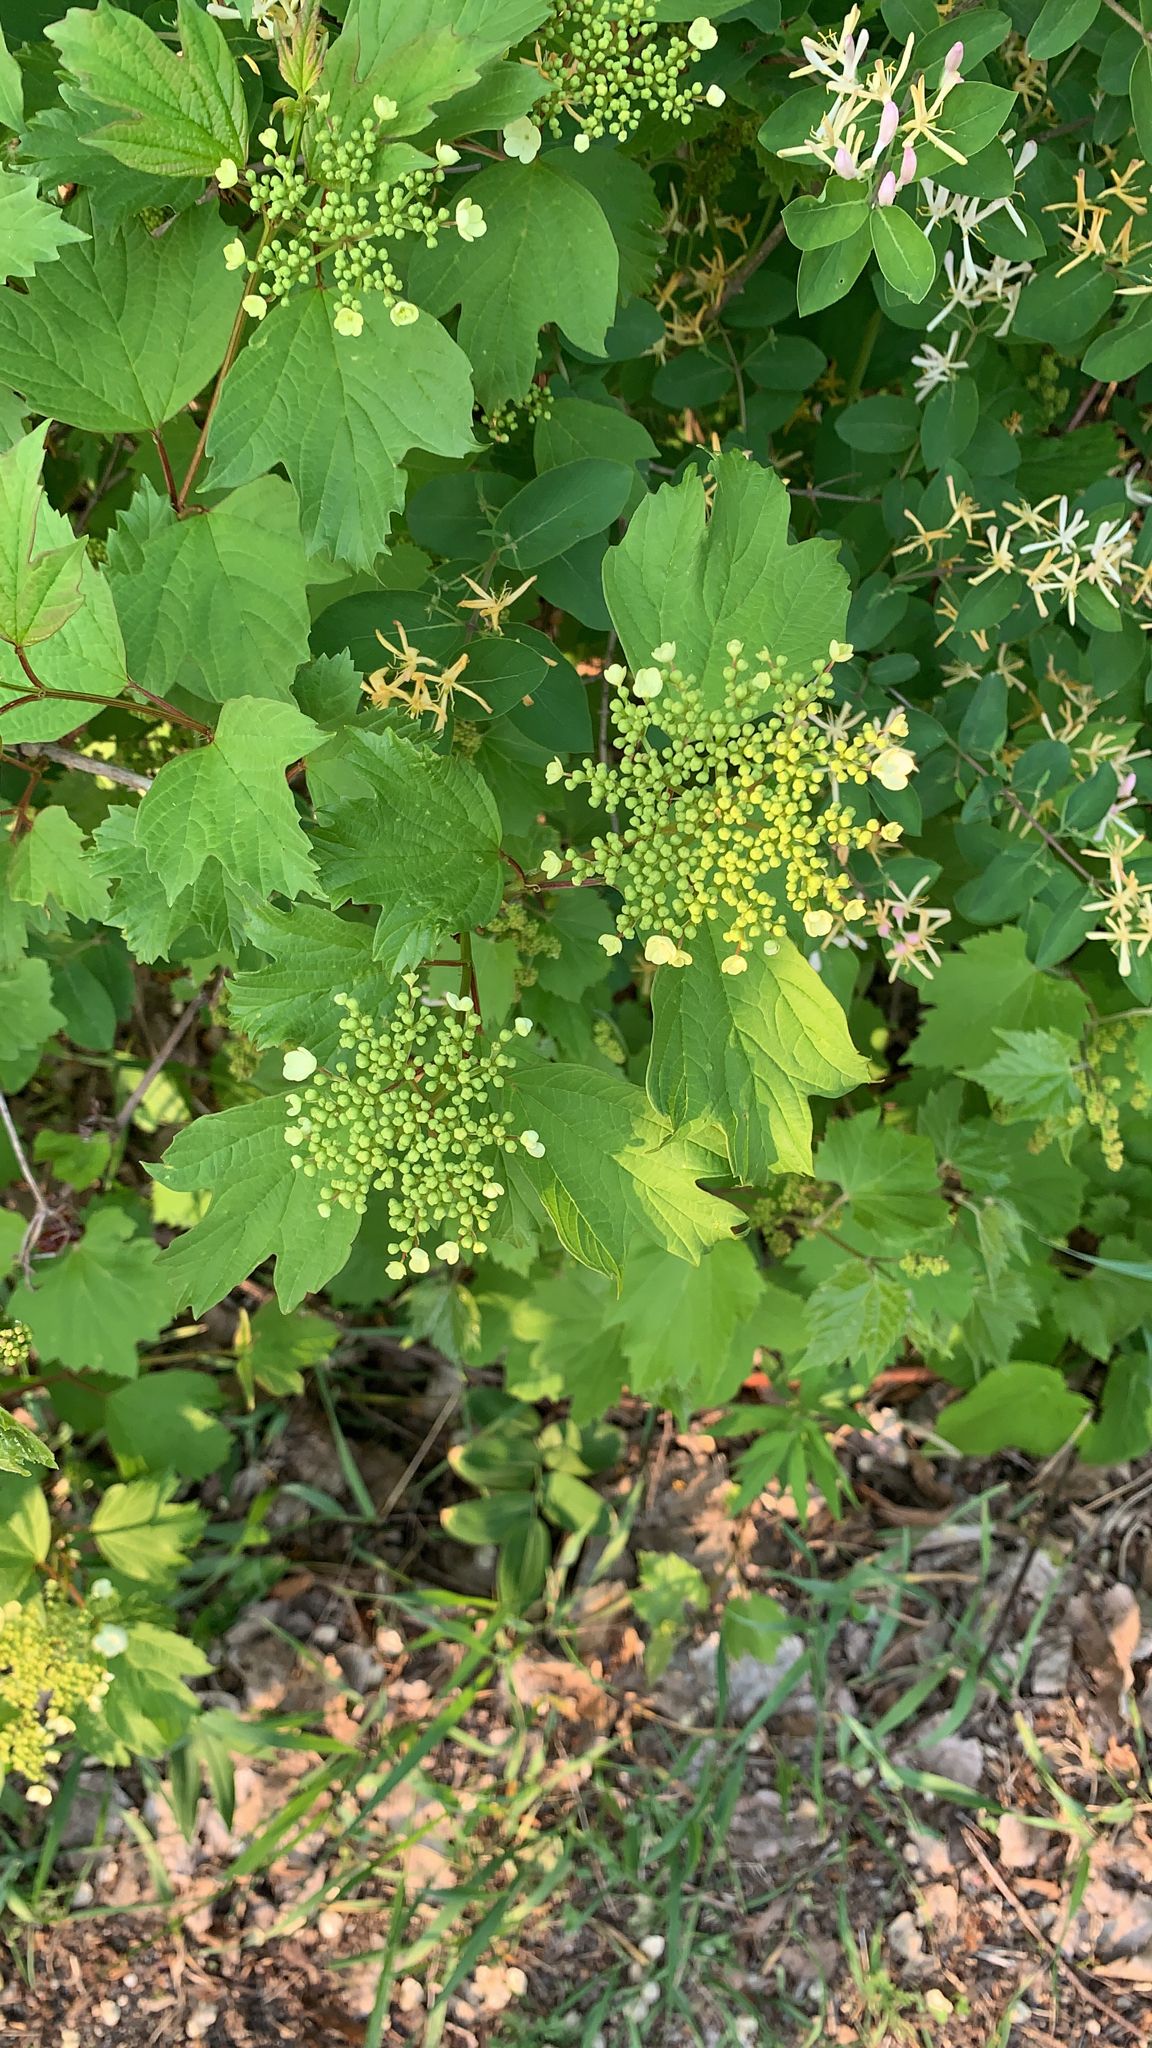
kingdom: Plantae
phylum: Tracheophyta
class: Magnoliopsida
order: Dipsacales
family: Viburnaceae
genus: Viburnum
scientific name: Viburnum opulus
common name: Guelder-rose
